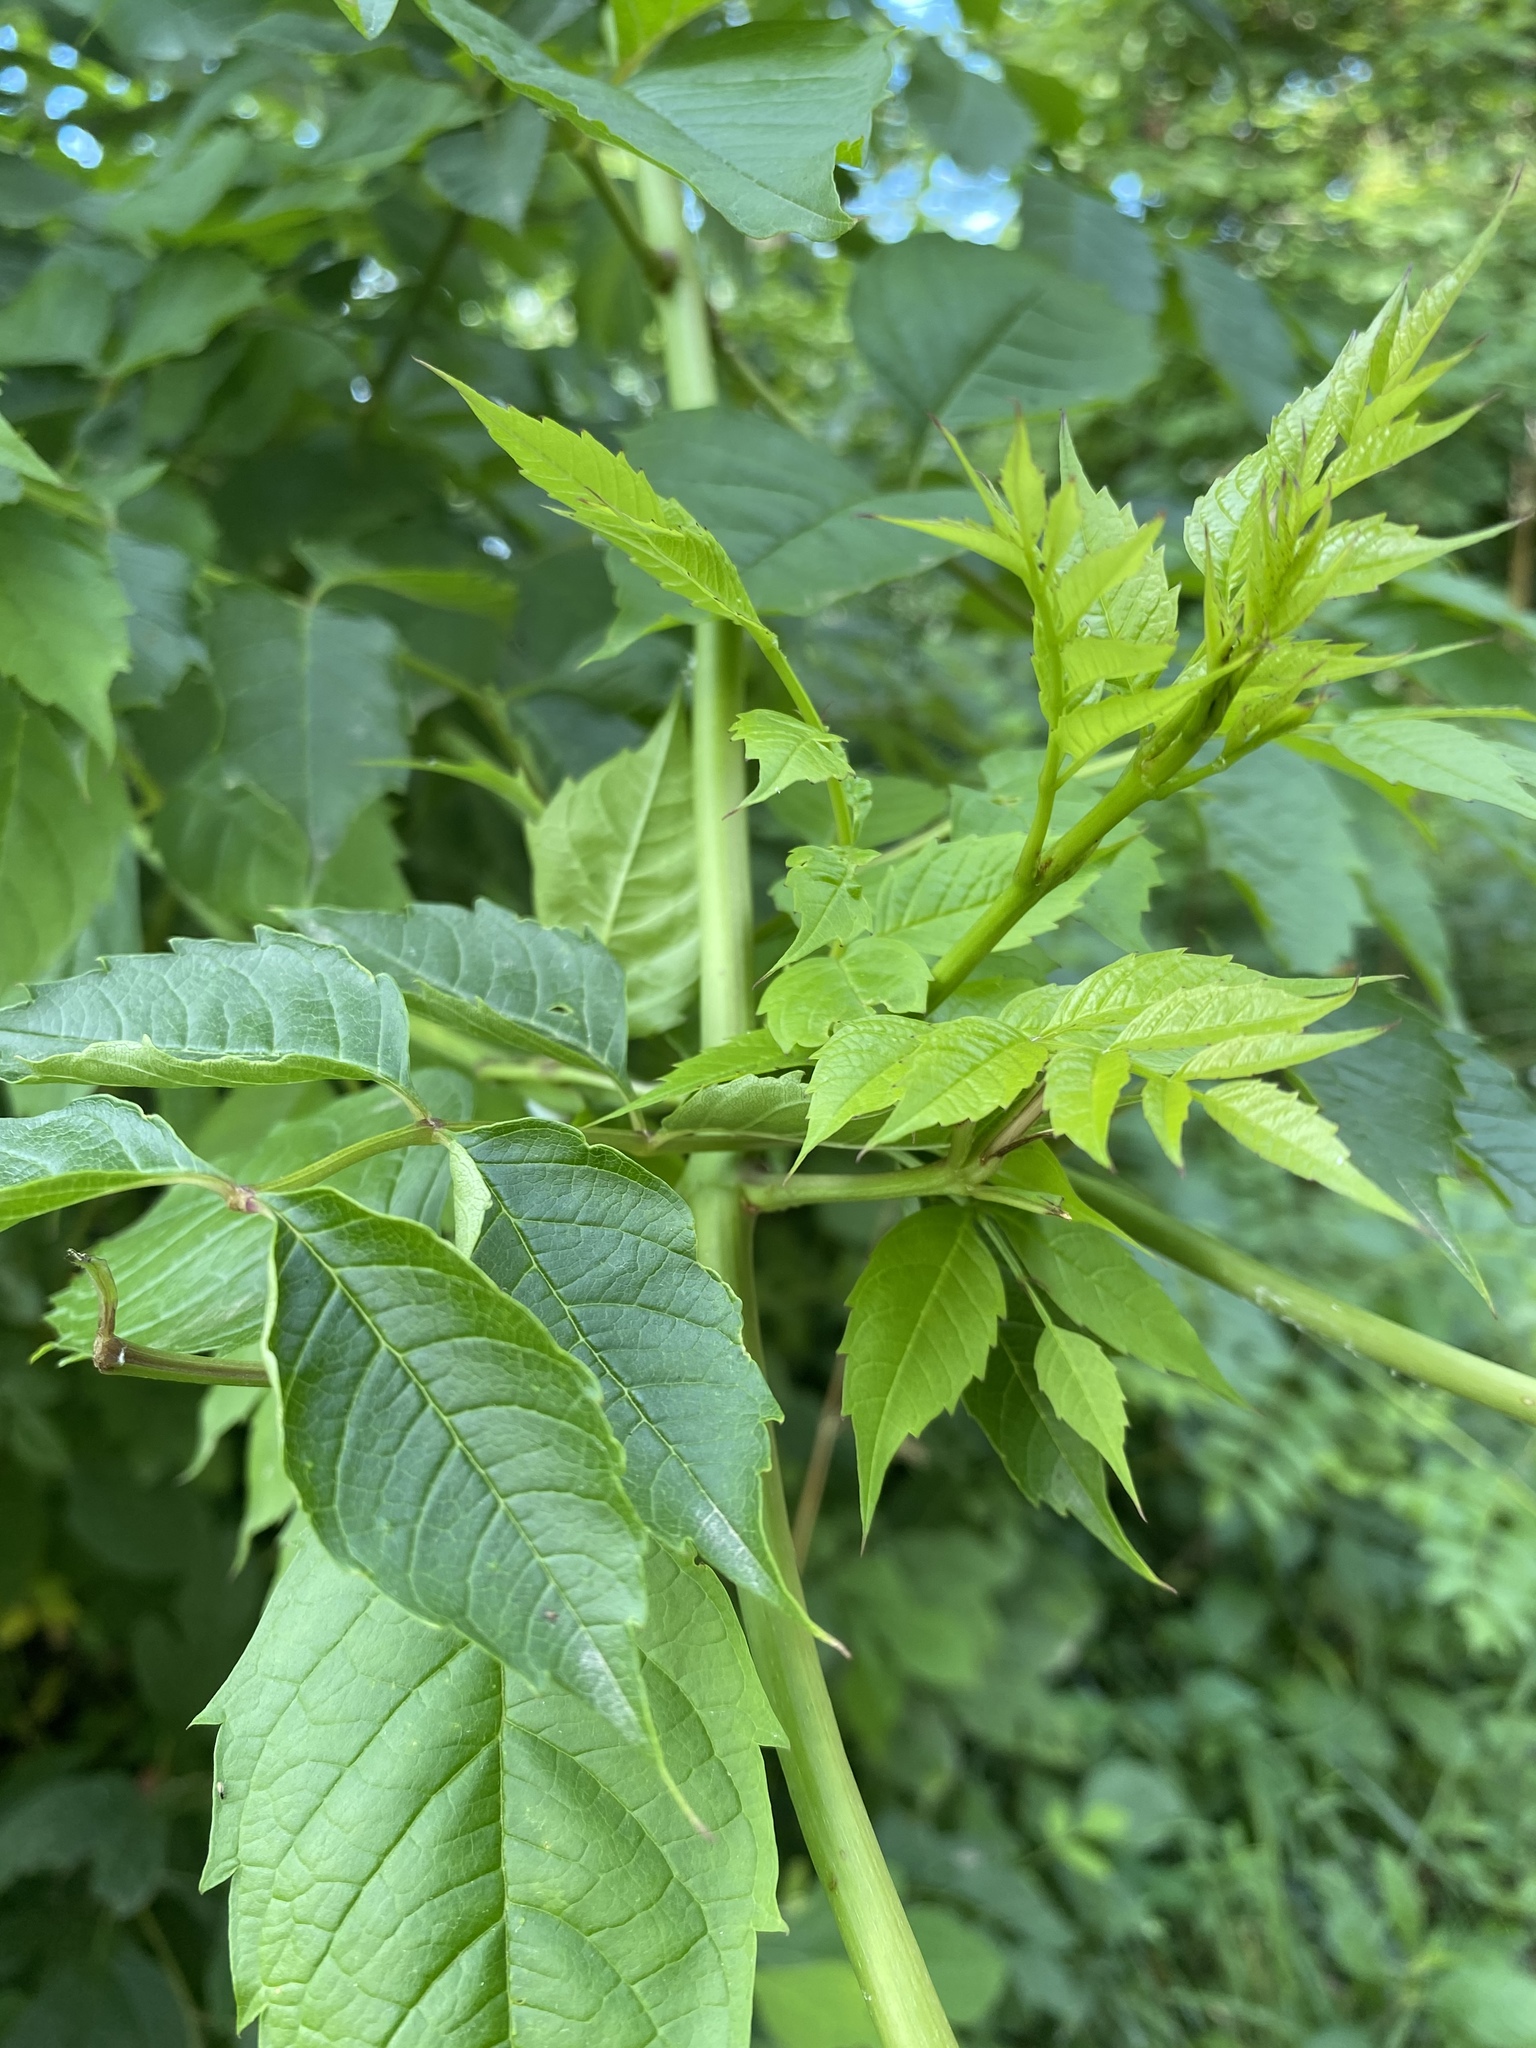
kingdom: Plantae
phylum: Tracheophyta
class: Magnoliopsida
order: Lamiales
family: Bignoniaceae
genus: Campsis
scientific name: Campsis radicans
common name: Trumpet-creeper
